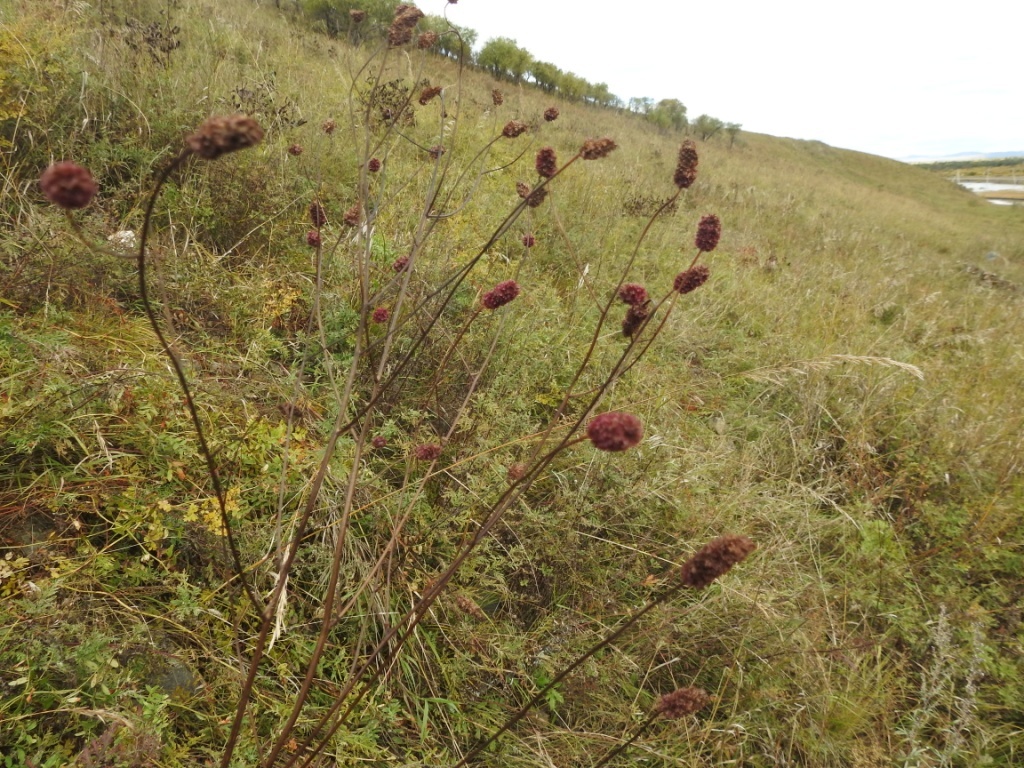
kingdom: Plantae
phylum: Tracheophyta
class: Magnoliopsida
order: Rosales
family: Rosaceae
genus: Sanguisorba
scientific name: Sanguisorba officinalis
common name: Great burnet
